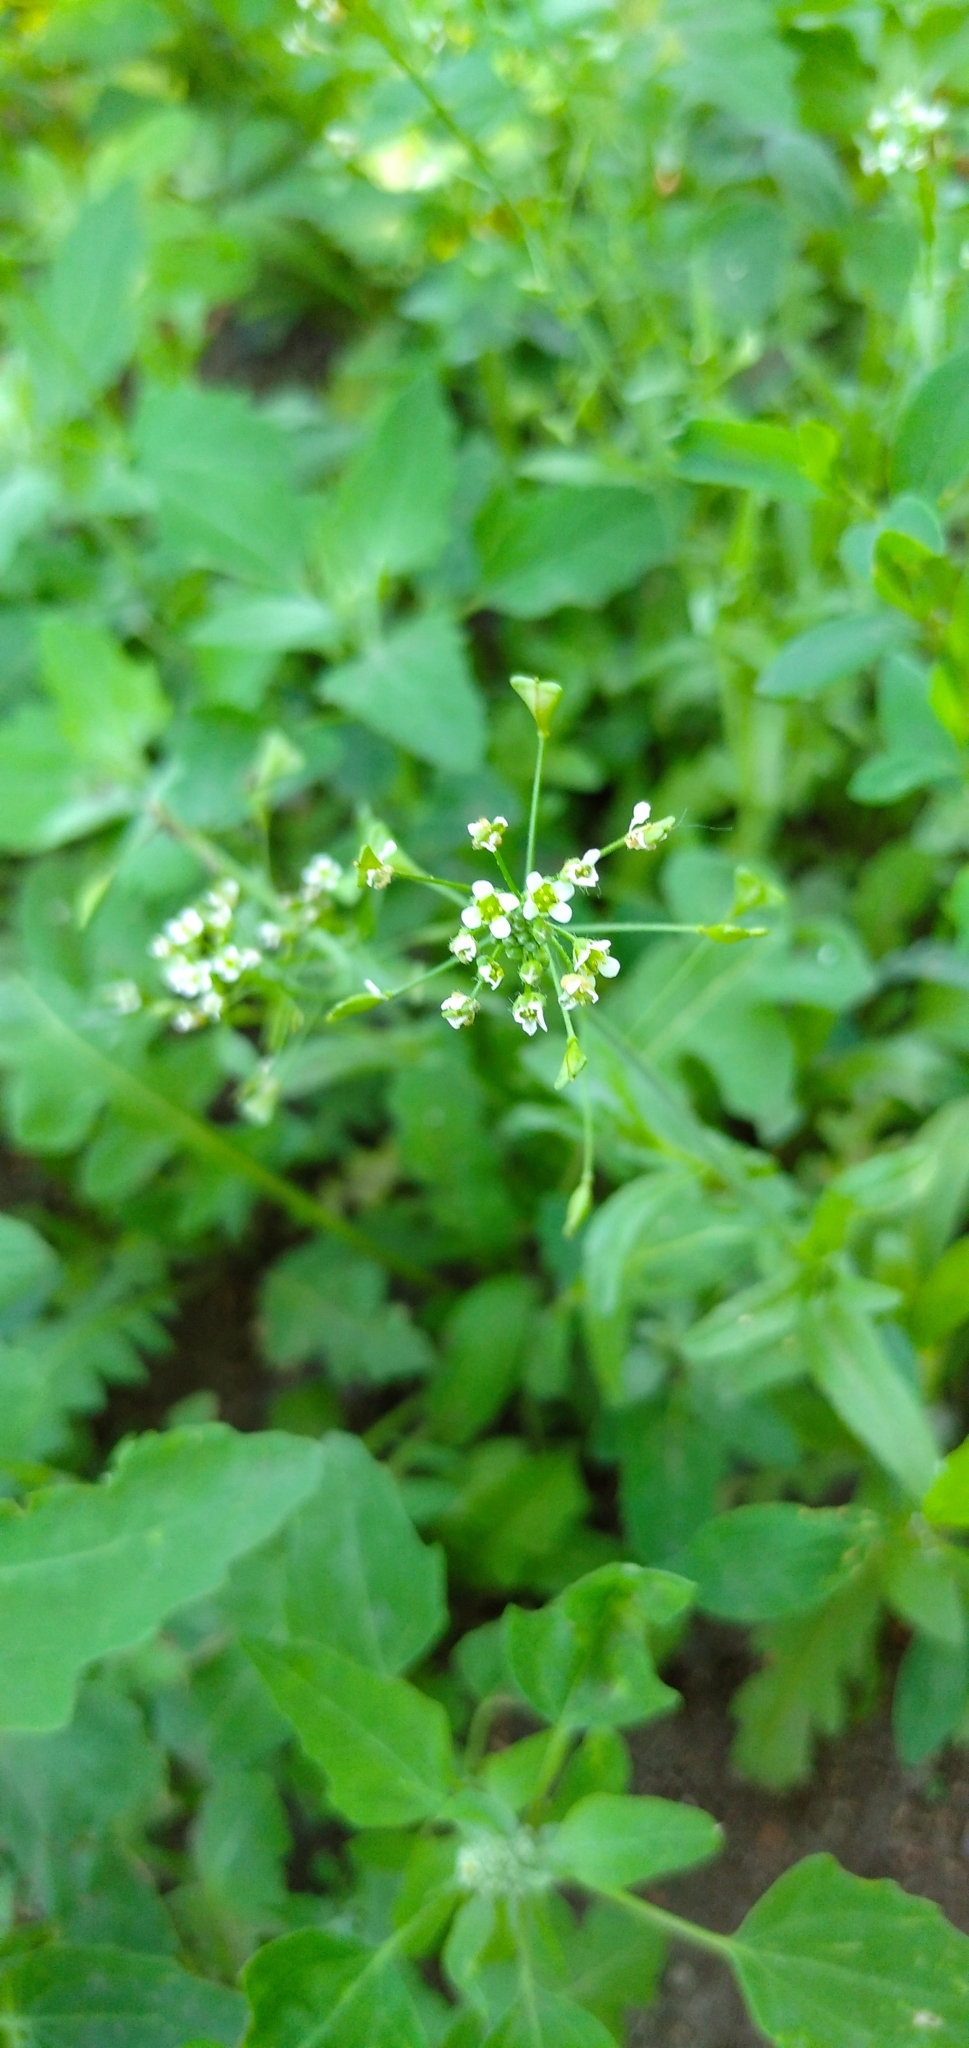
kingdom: Plantae
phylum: Tracheophyta
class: Magnoliopsida
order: Brassicales
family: Brassicaceae
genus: Capsella
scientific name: Capsella bursa-pastoris
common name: Shepherd's purse
